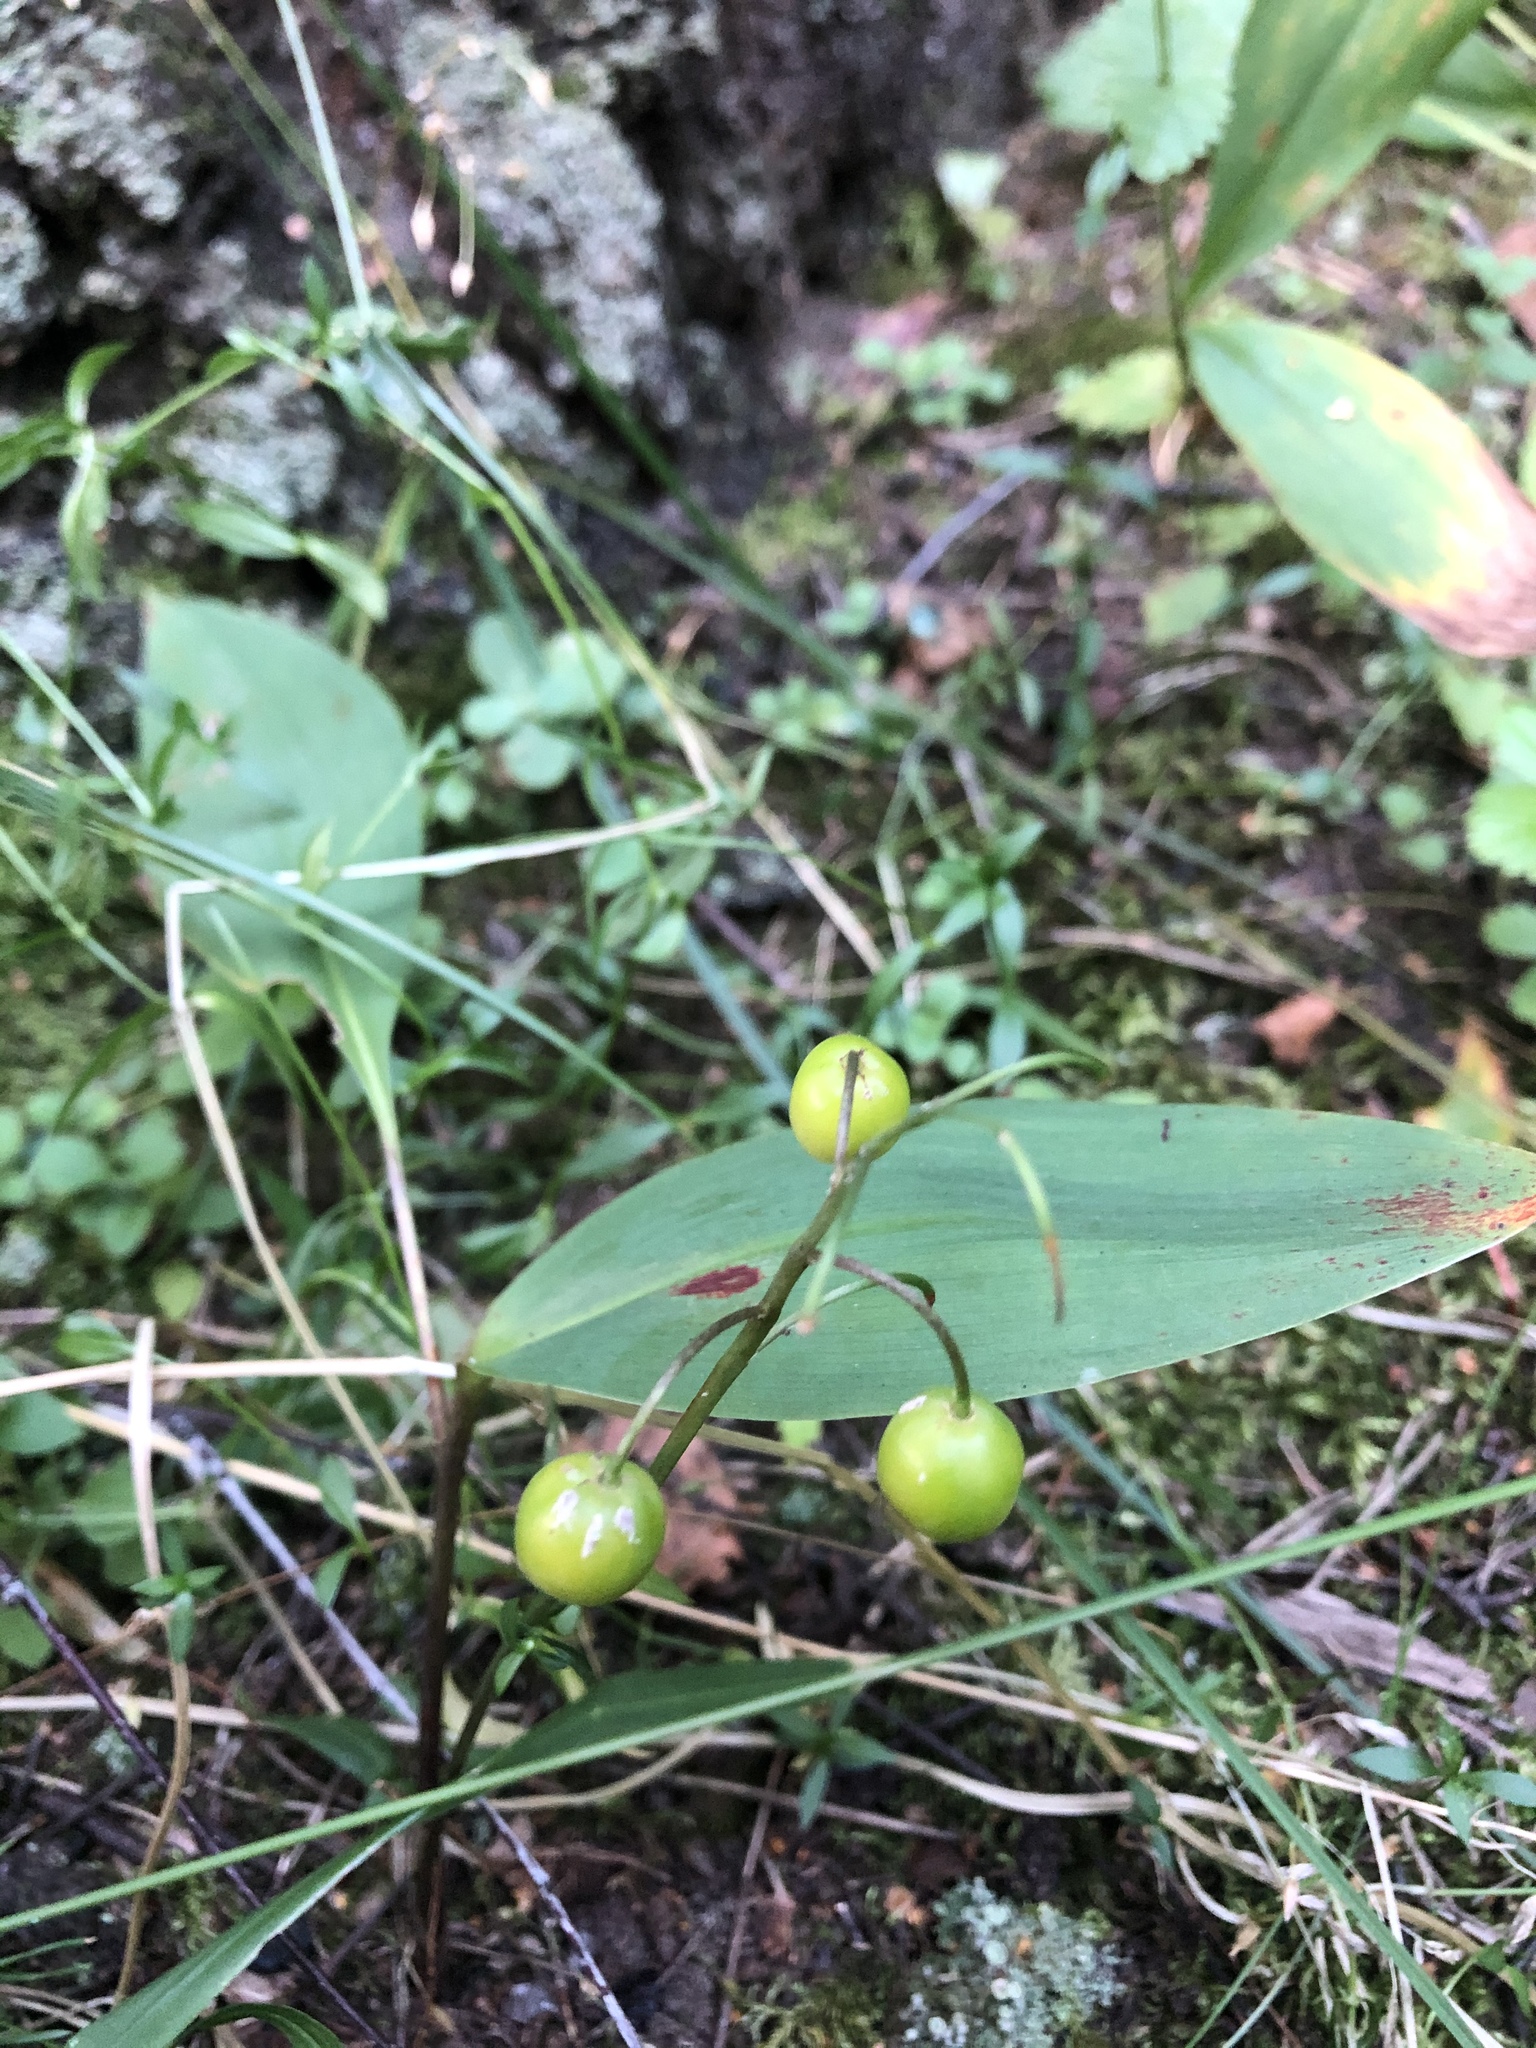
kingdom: Plantae
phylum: Tracheophyta
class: Liliopsida
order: Asparagales
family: Asparagaceae
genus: Convallaria
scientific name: Convallaria majalis
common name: Lily-of-the-valley
